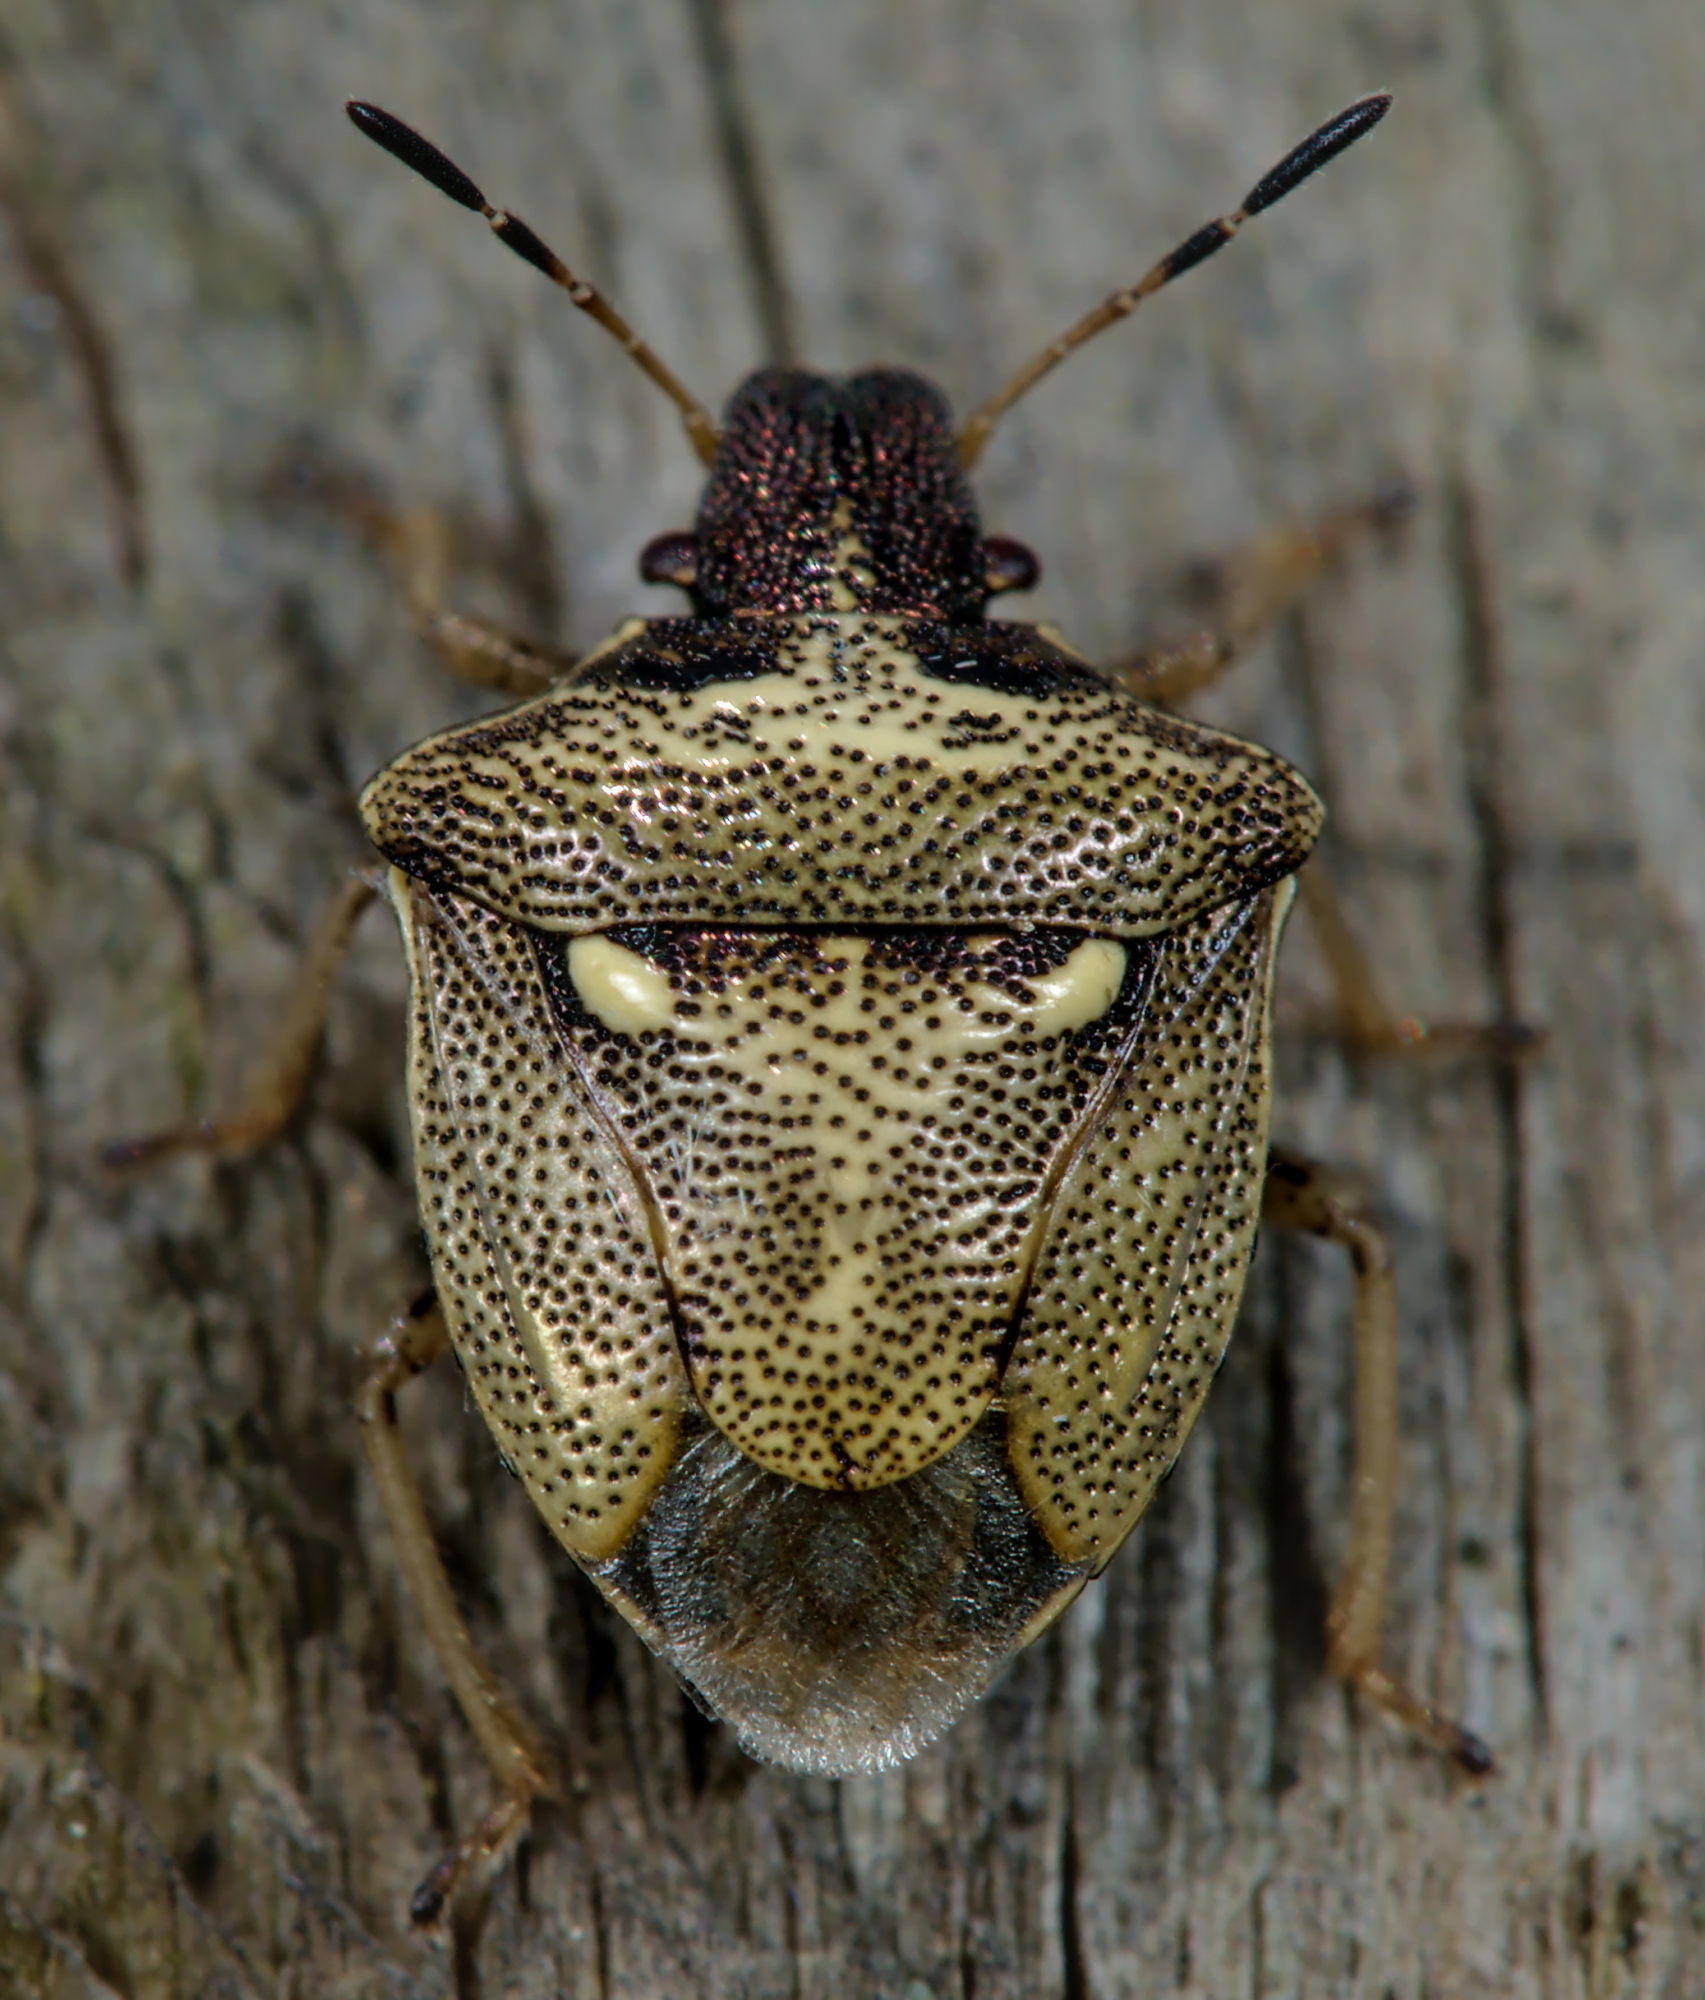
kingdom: Animalia
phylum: Arthropoda
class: Insecta
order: Hemiptera
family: Pentatomidae
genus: Eysarcoris
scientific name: Eysarcoris aeneus
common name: New forest shieldbug
